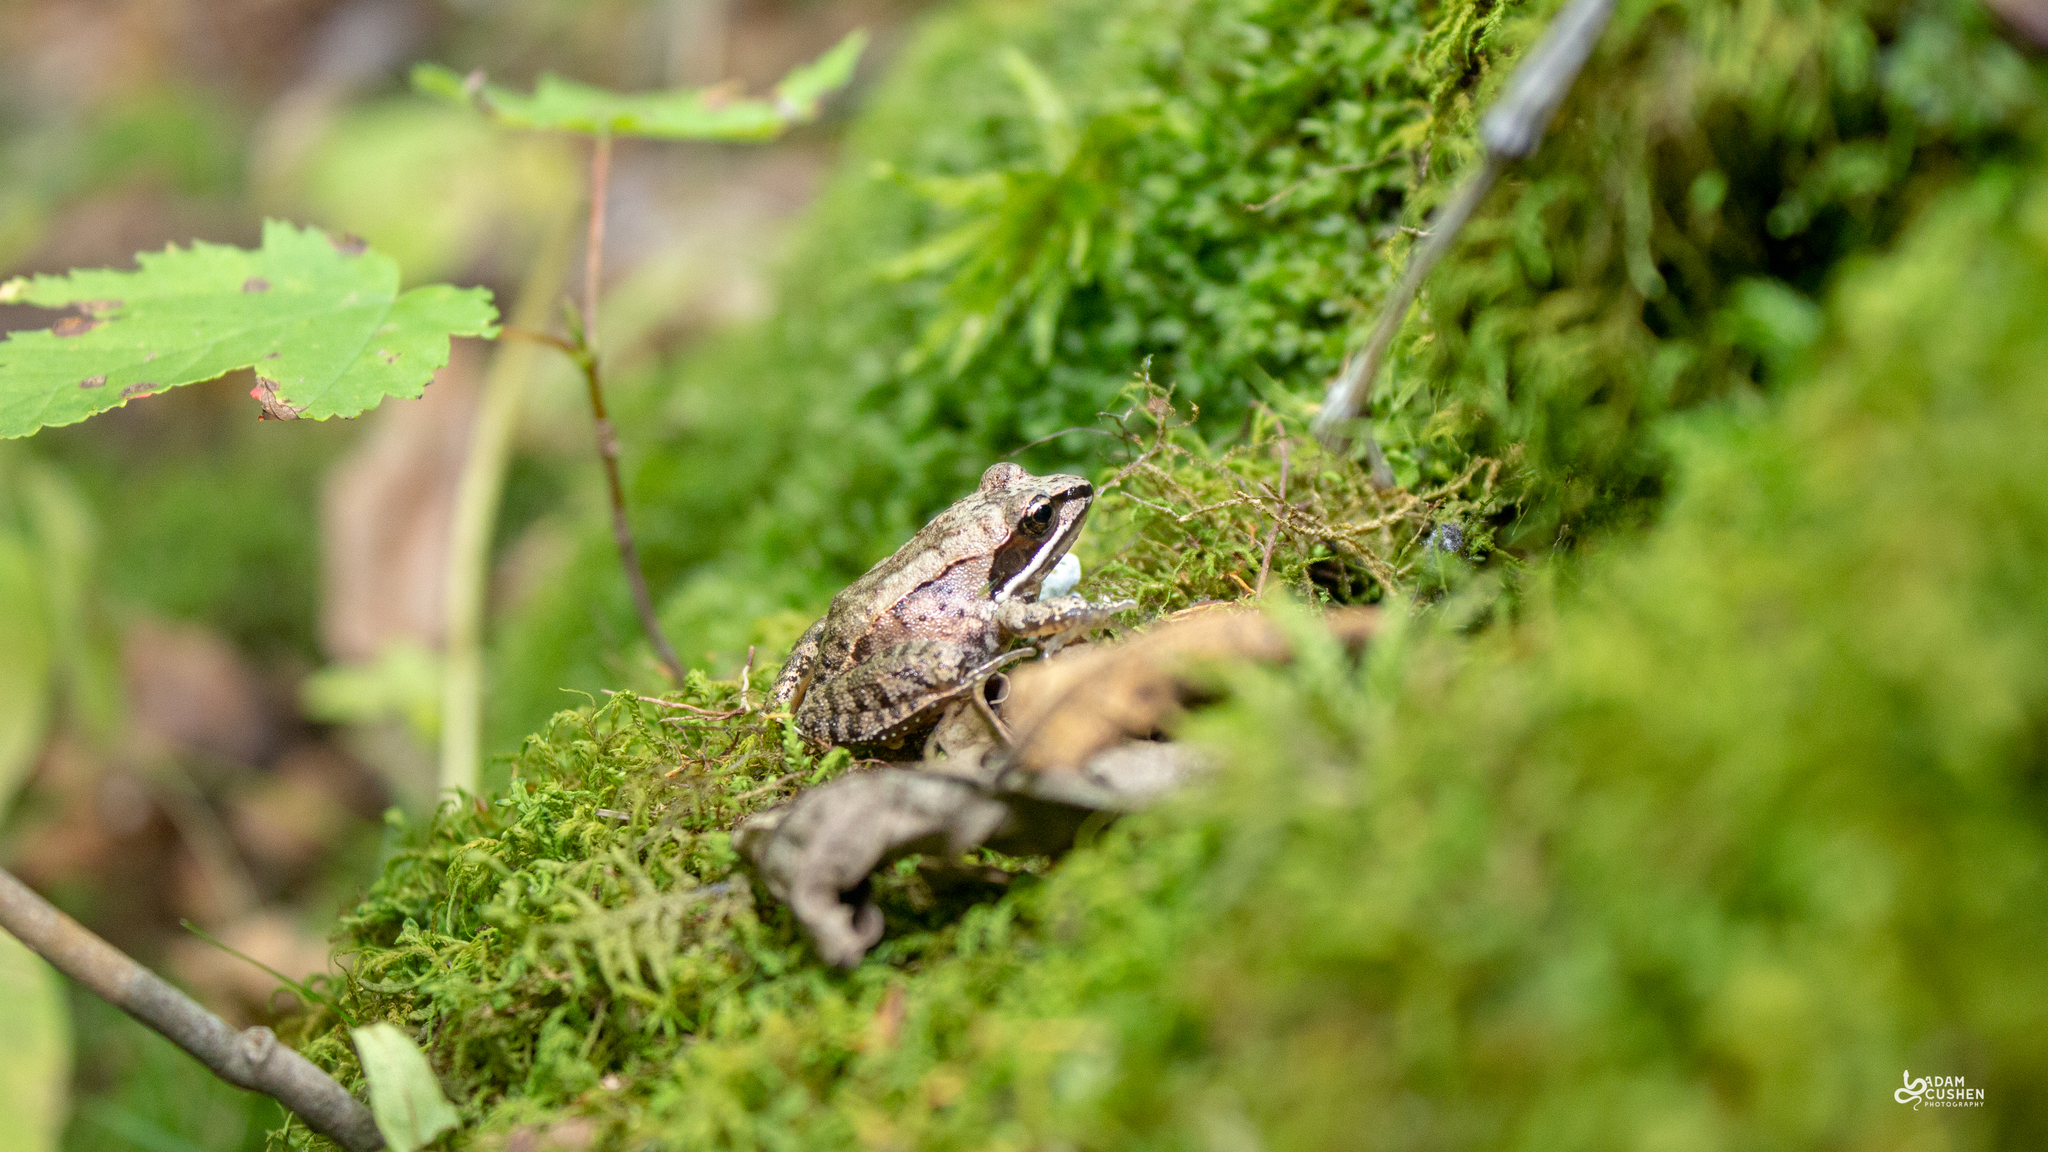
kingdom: Animalia
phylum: Chordata
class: Amphibia
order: Anura
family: Ranidae
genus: Lithobates
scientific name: Lithobates sylvaticus
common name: Wood frog
